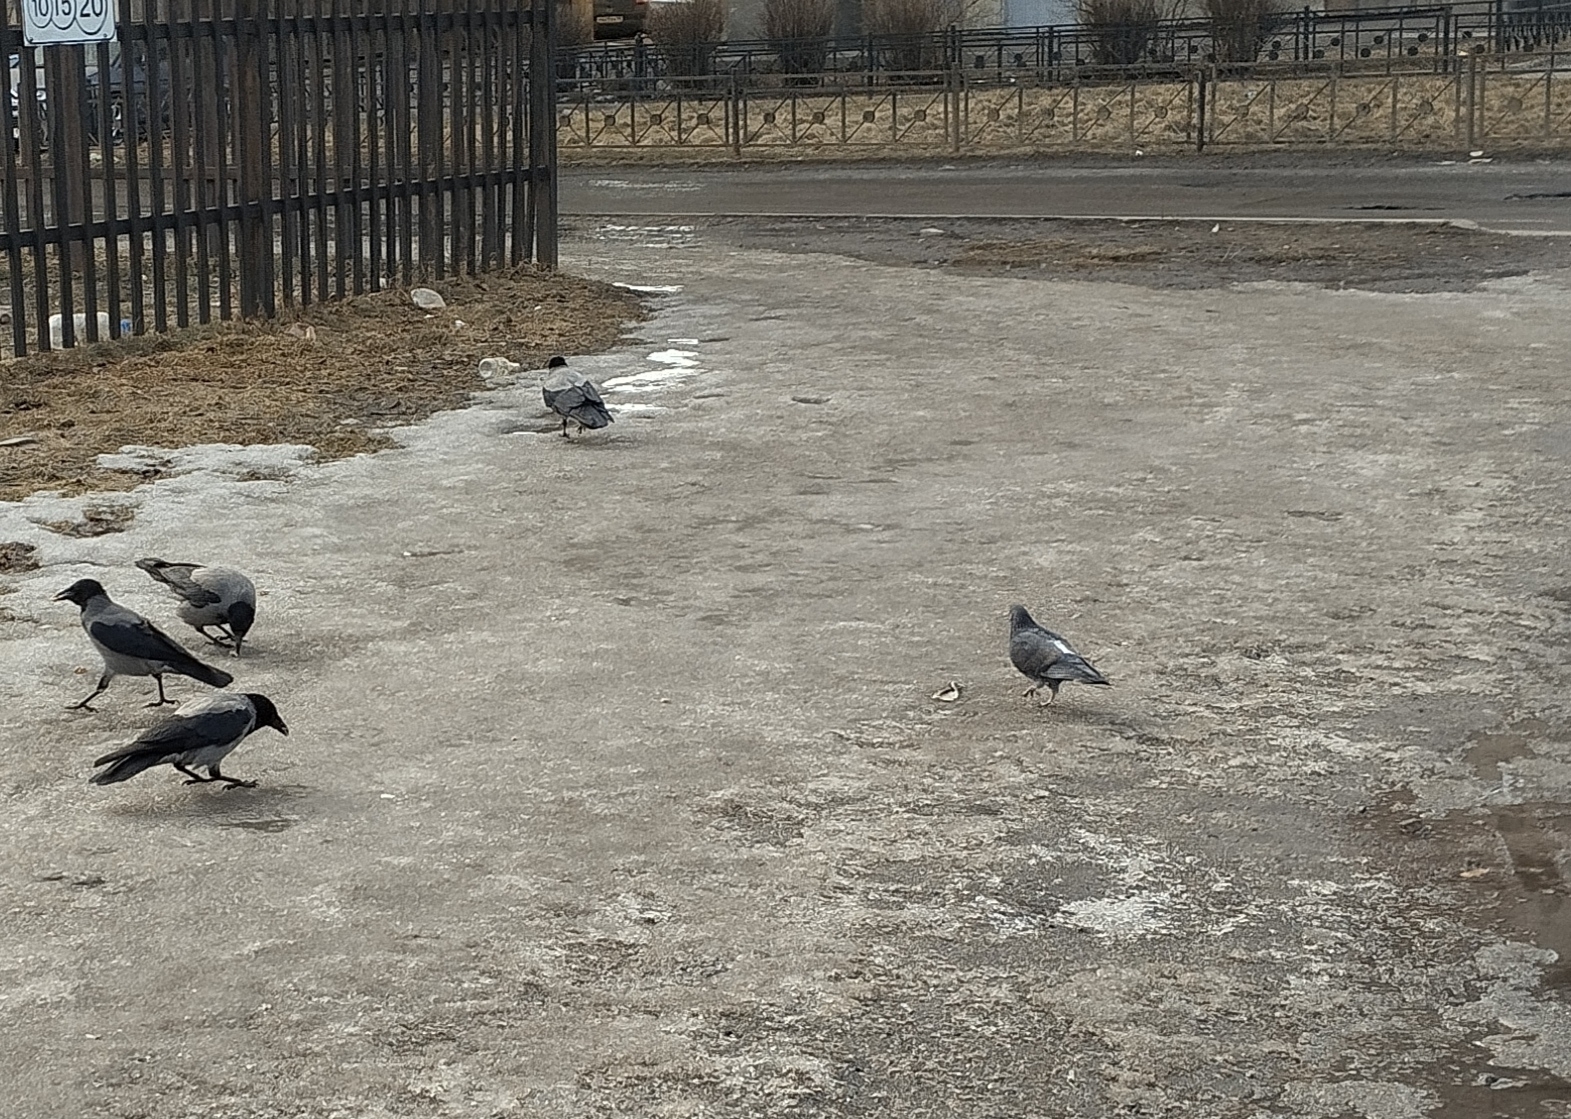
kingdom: Animalia
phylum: Chordata
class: Aves
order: Columbiformes
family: Columbidae
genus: Columba
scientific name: Columba livia
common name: Rock pigeon
